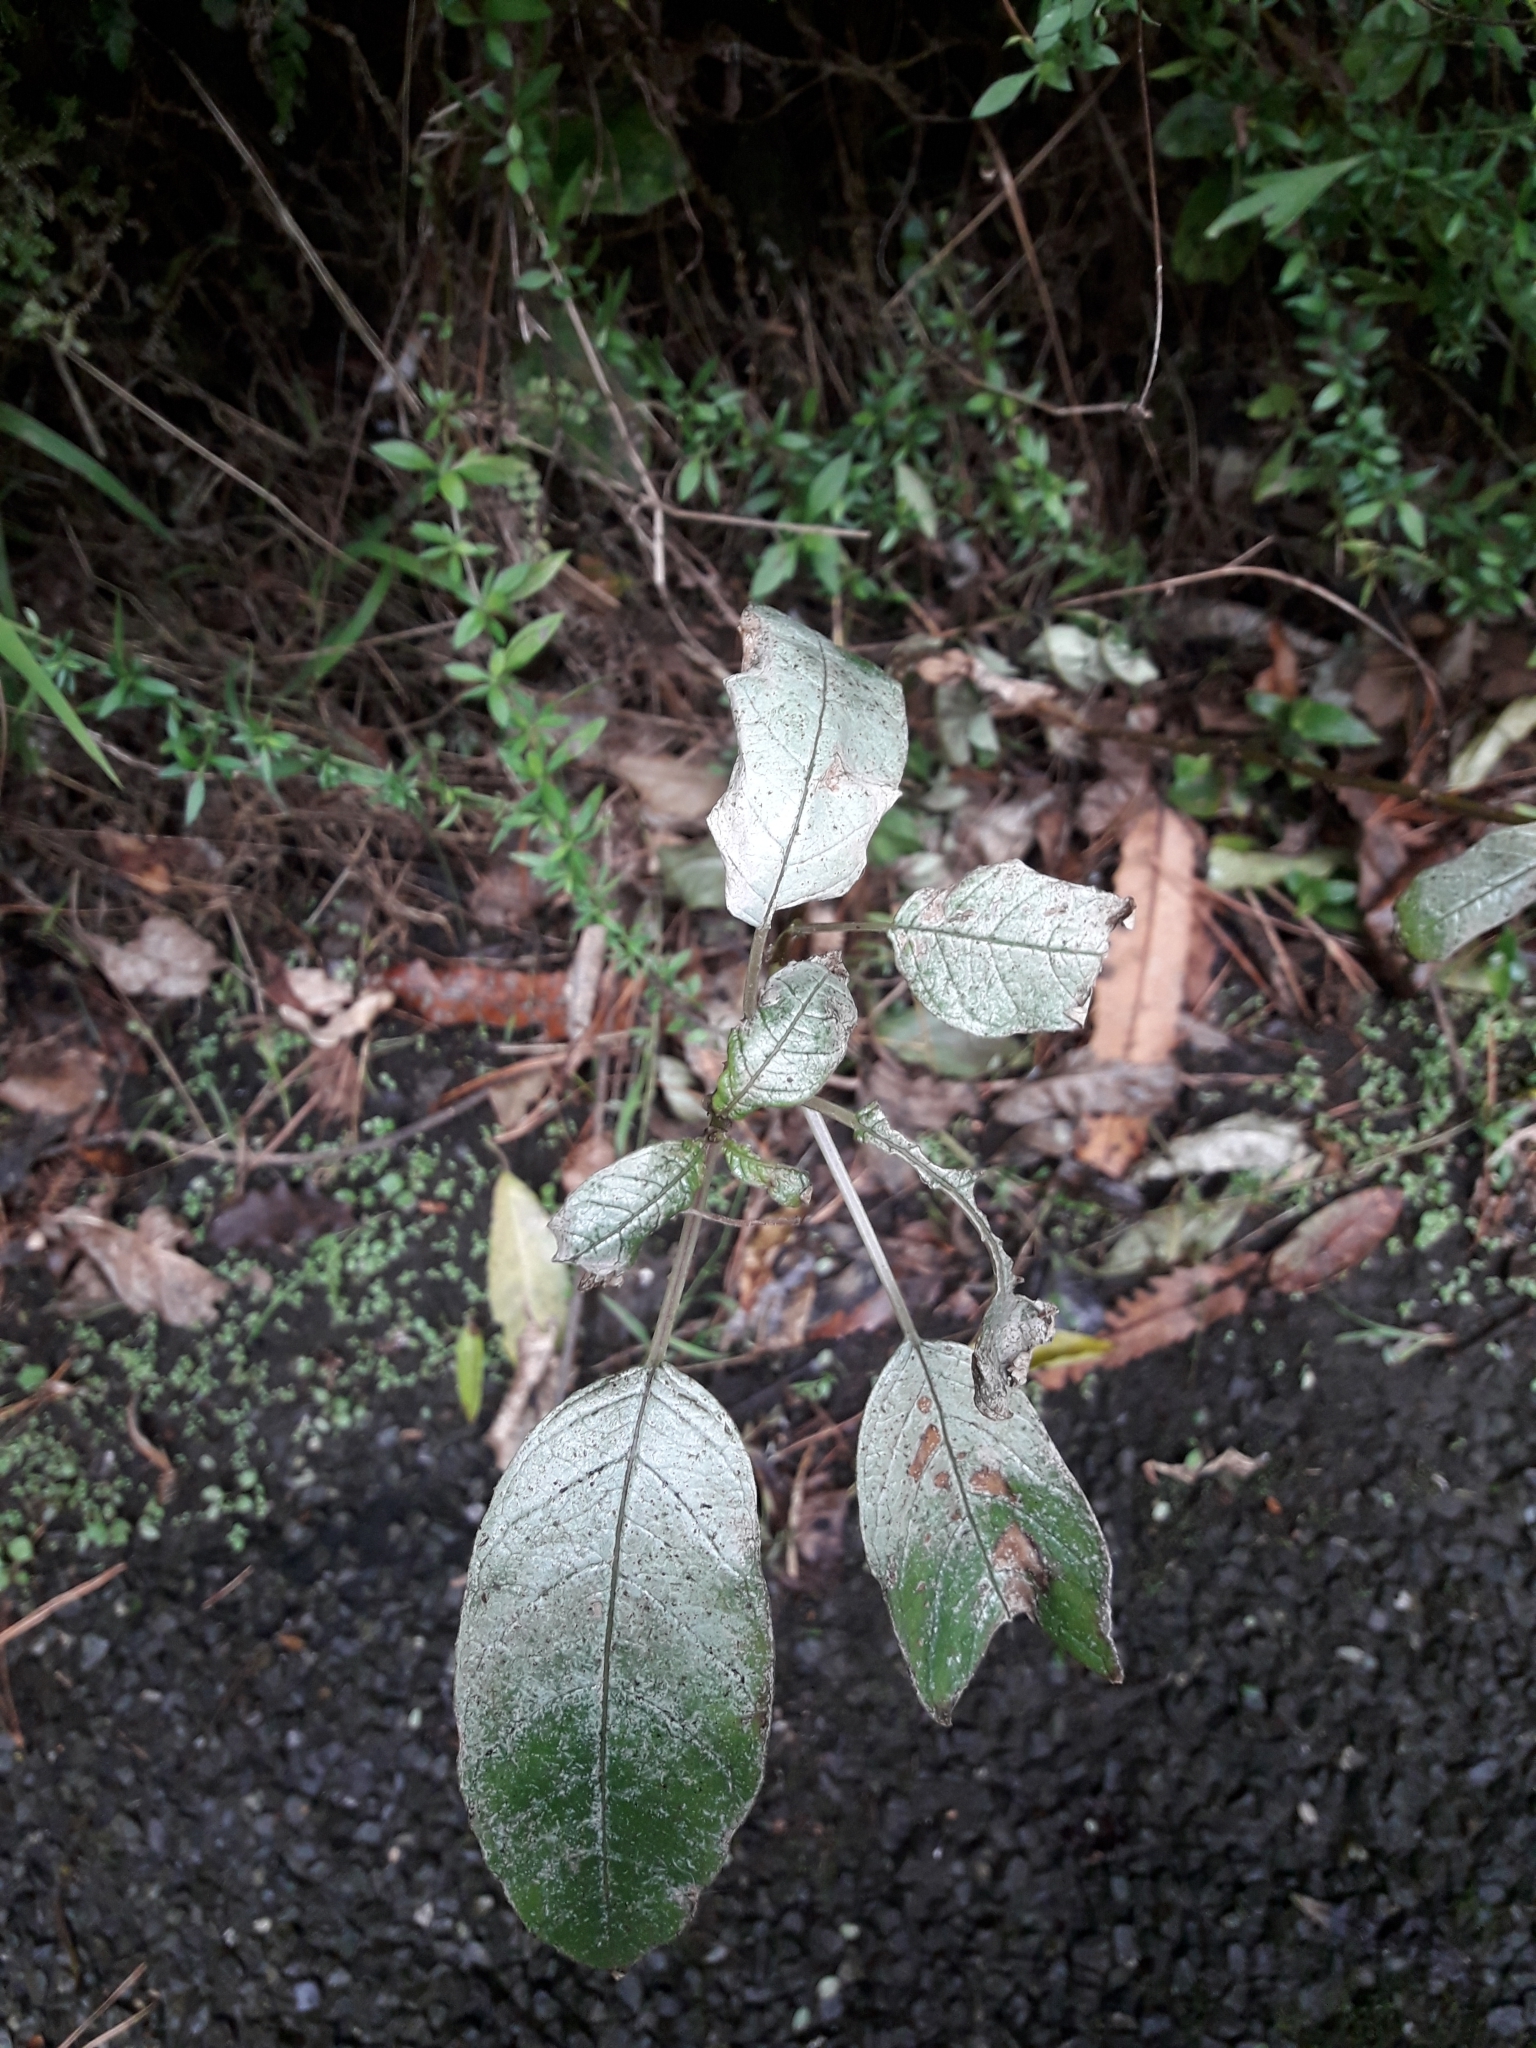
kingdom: Plantae
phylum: Tracheophyta
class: Magnoliopsida
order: Myrtales
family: Onagraceae
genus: Fuchsia
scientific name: Fuchsia excorticata
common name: Tree fuchsia
